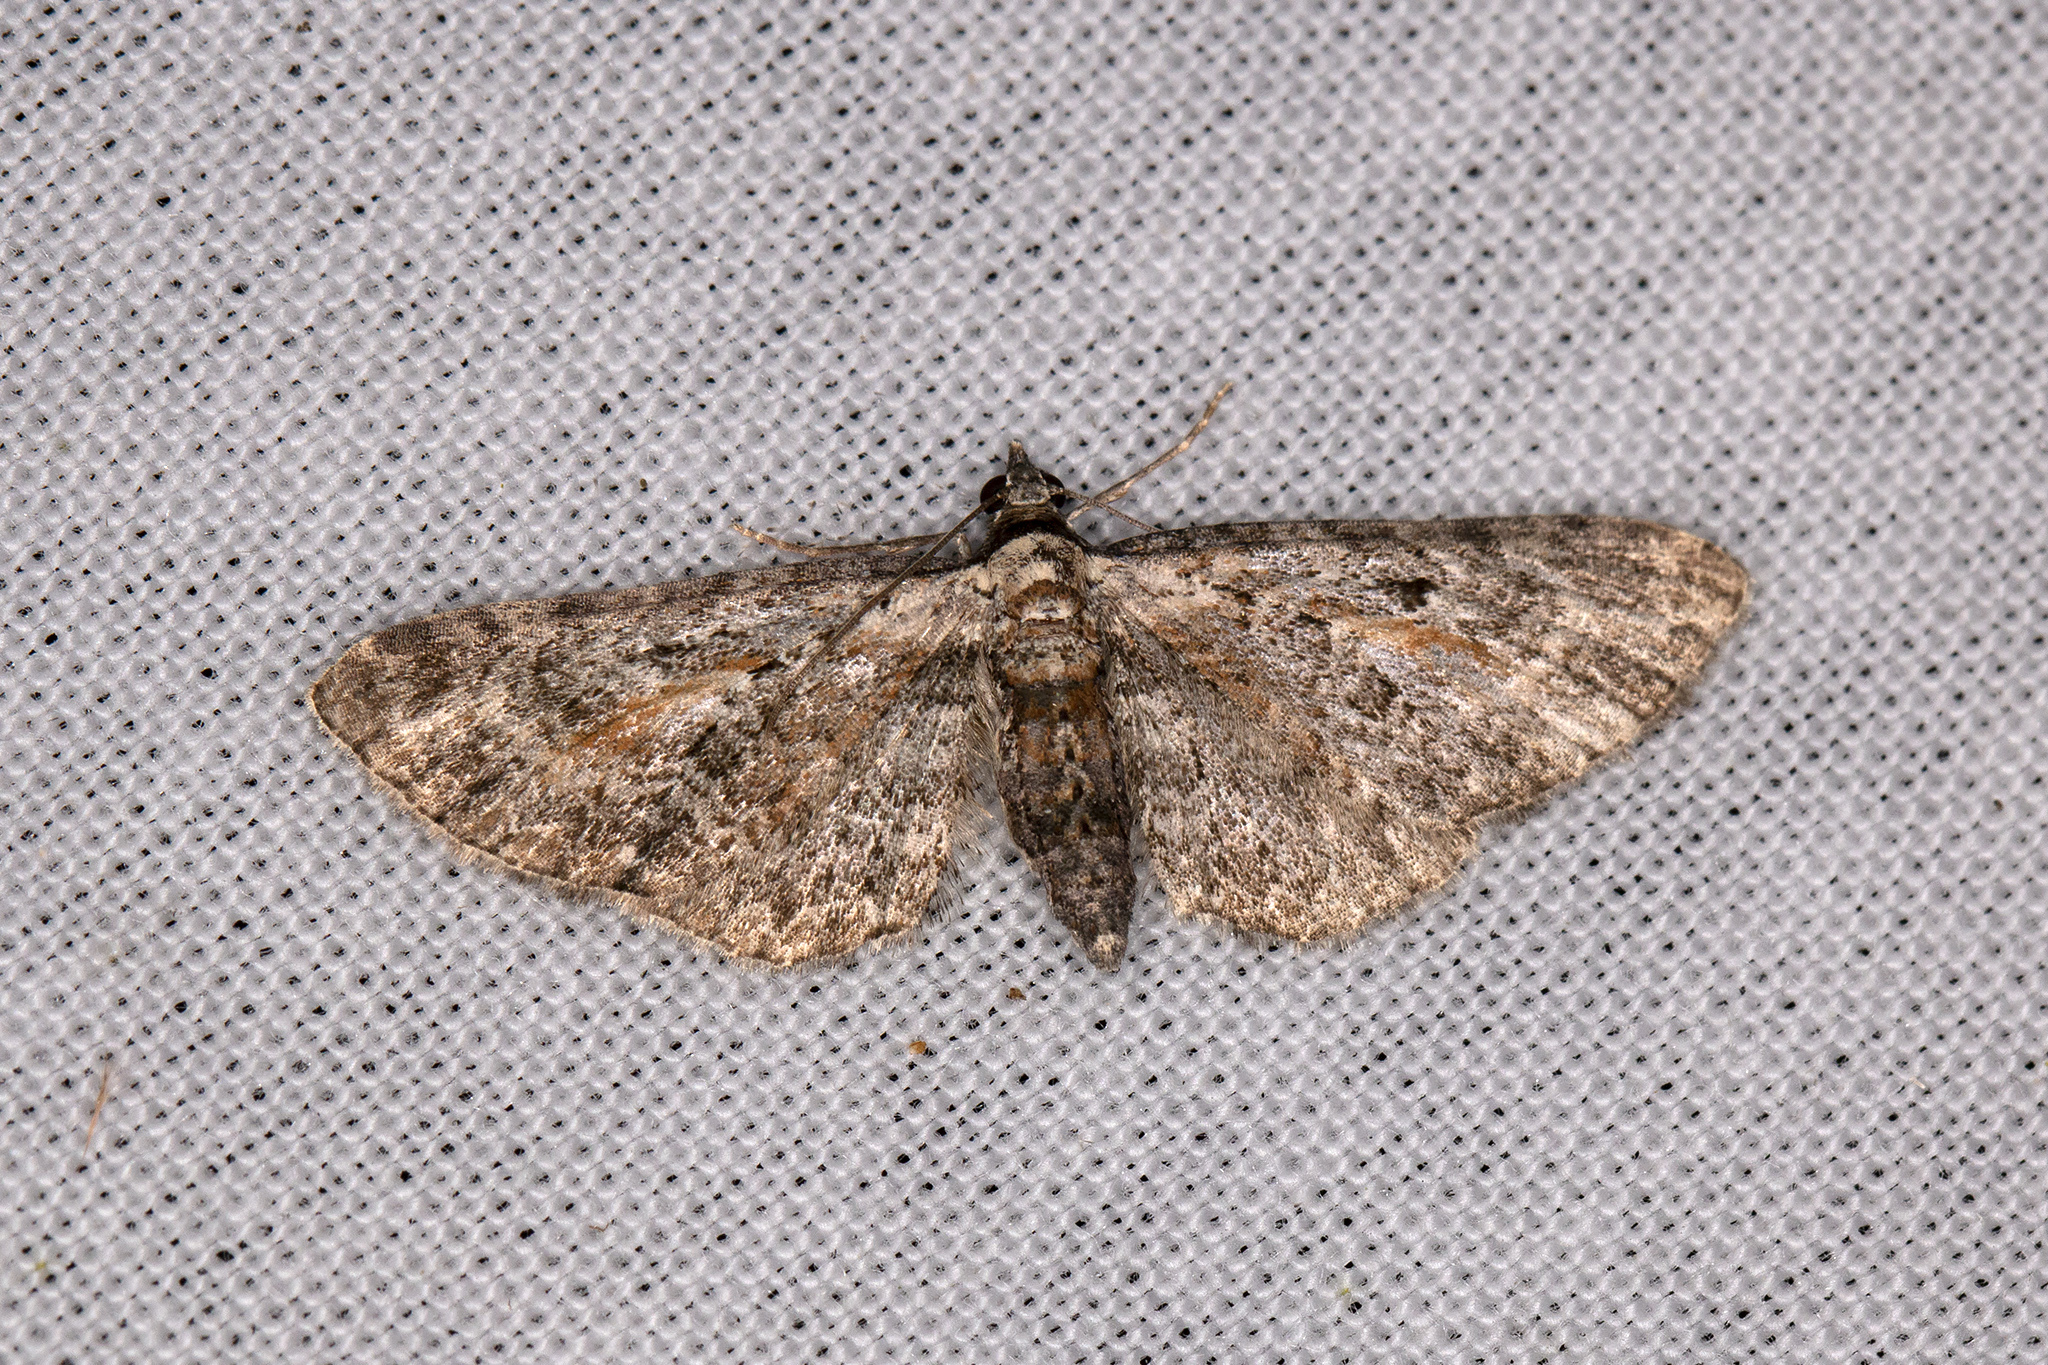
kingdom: Animalia
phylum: Arthropoda
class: Insecta
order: Lepidoptera
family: Geometridae
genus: Eupithecia
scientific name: Eupithecia icterata
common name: Tawny speckled pug
